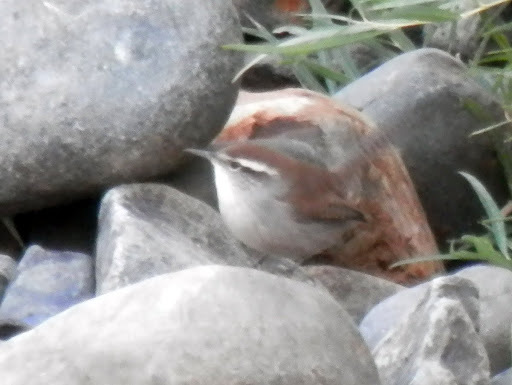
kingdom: Animalia
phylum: Chordata
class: Aves
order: Passeriformes
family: Troglodytidae
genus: Thryomanes
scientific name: Thryomanes bewickii
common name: Bewick's wren
